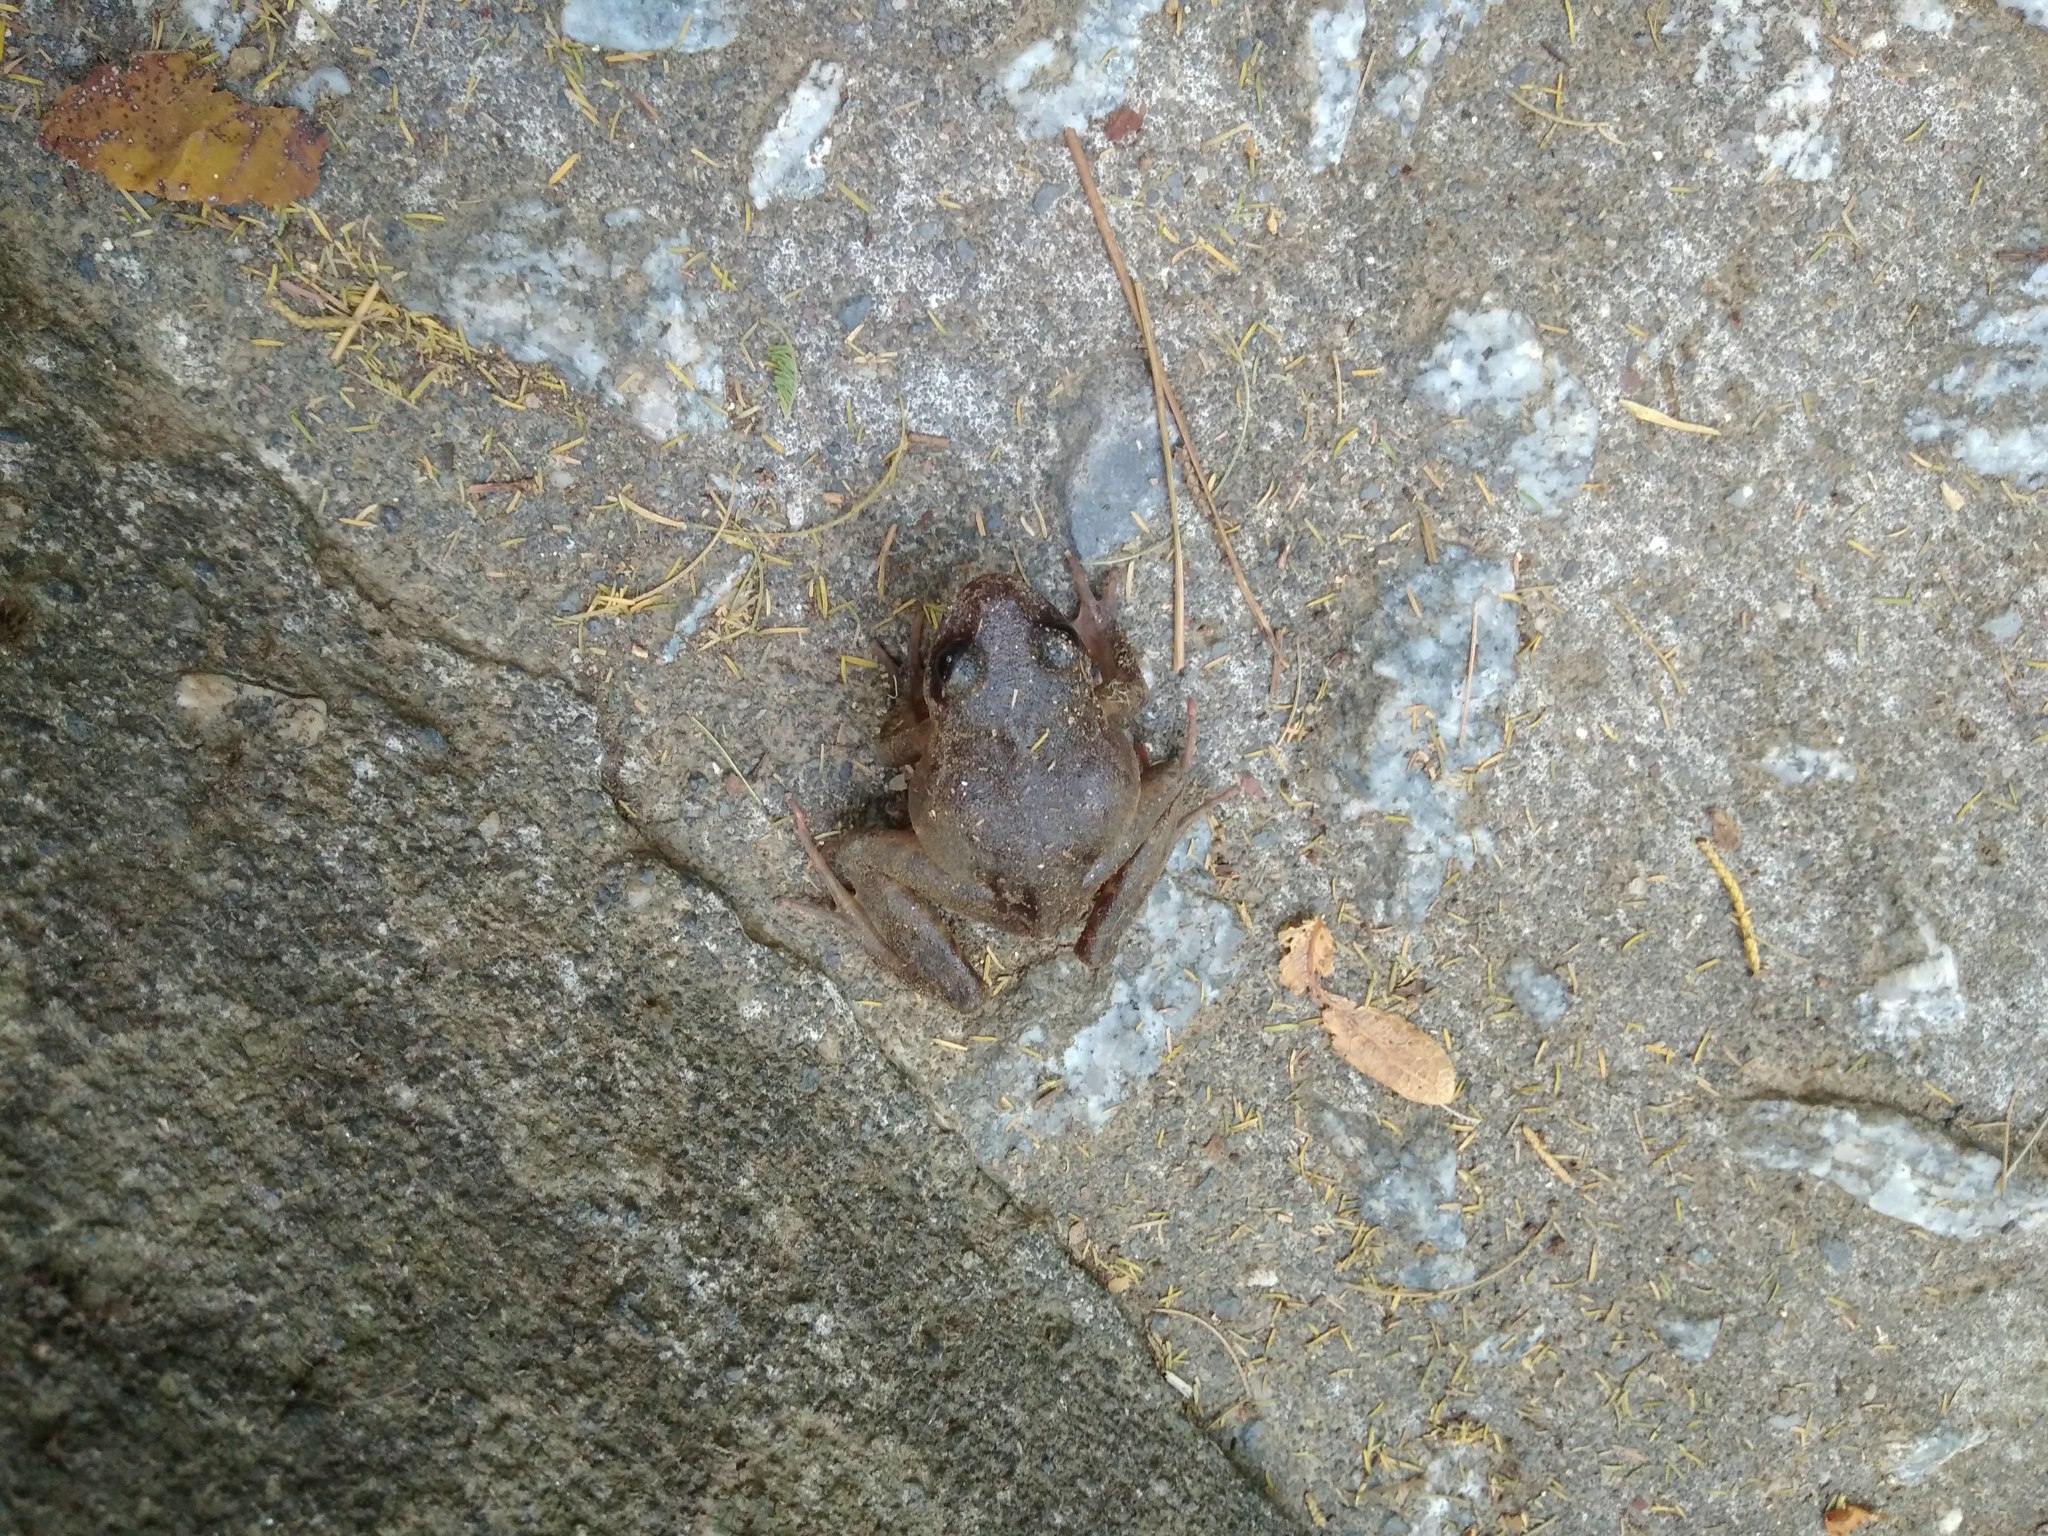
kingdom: Animalia
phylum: Chordata
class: Amphibia
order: Anura
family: Alsodidae
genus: Eupsophus
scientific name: Eupsophus roseus
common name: Rosy ground frog
